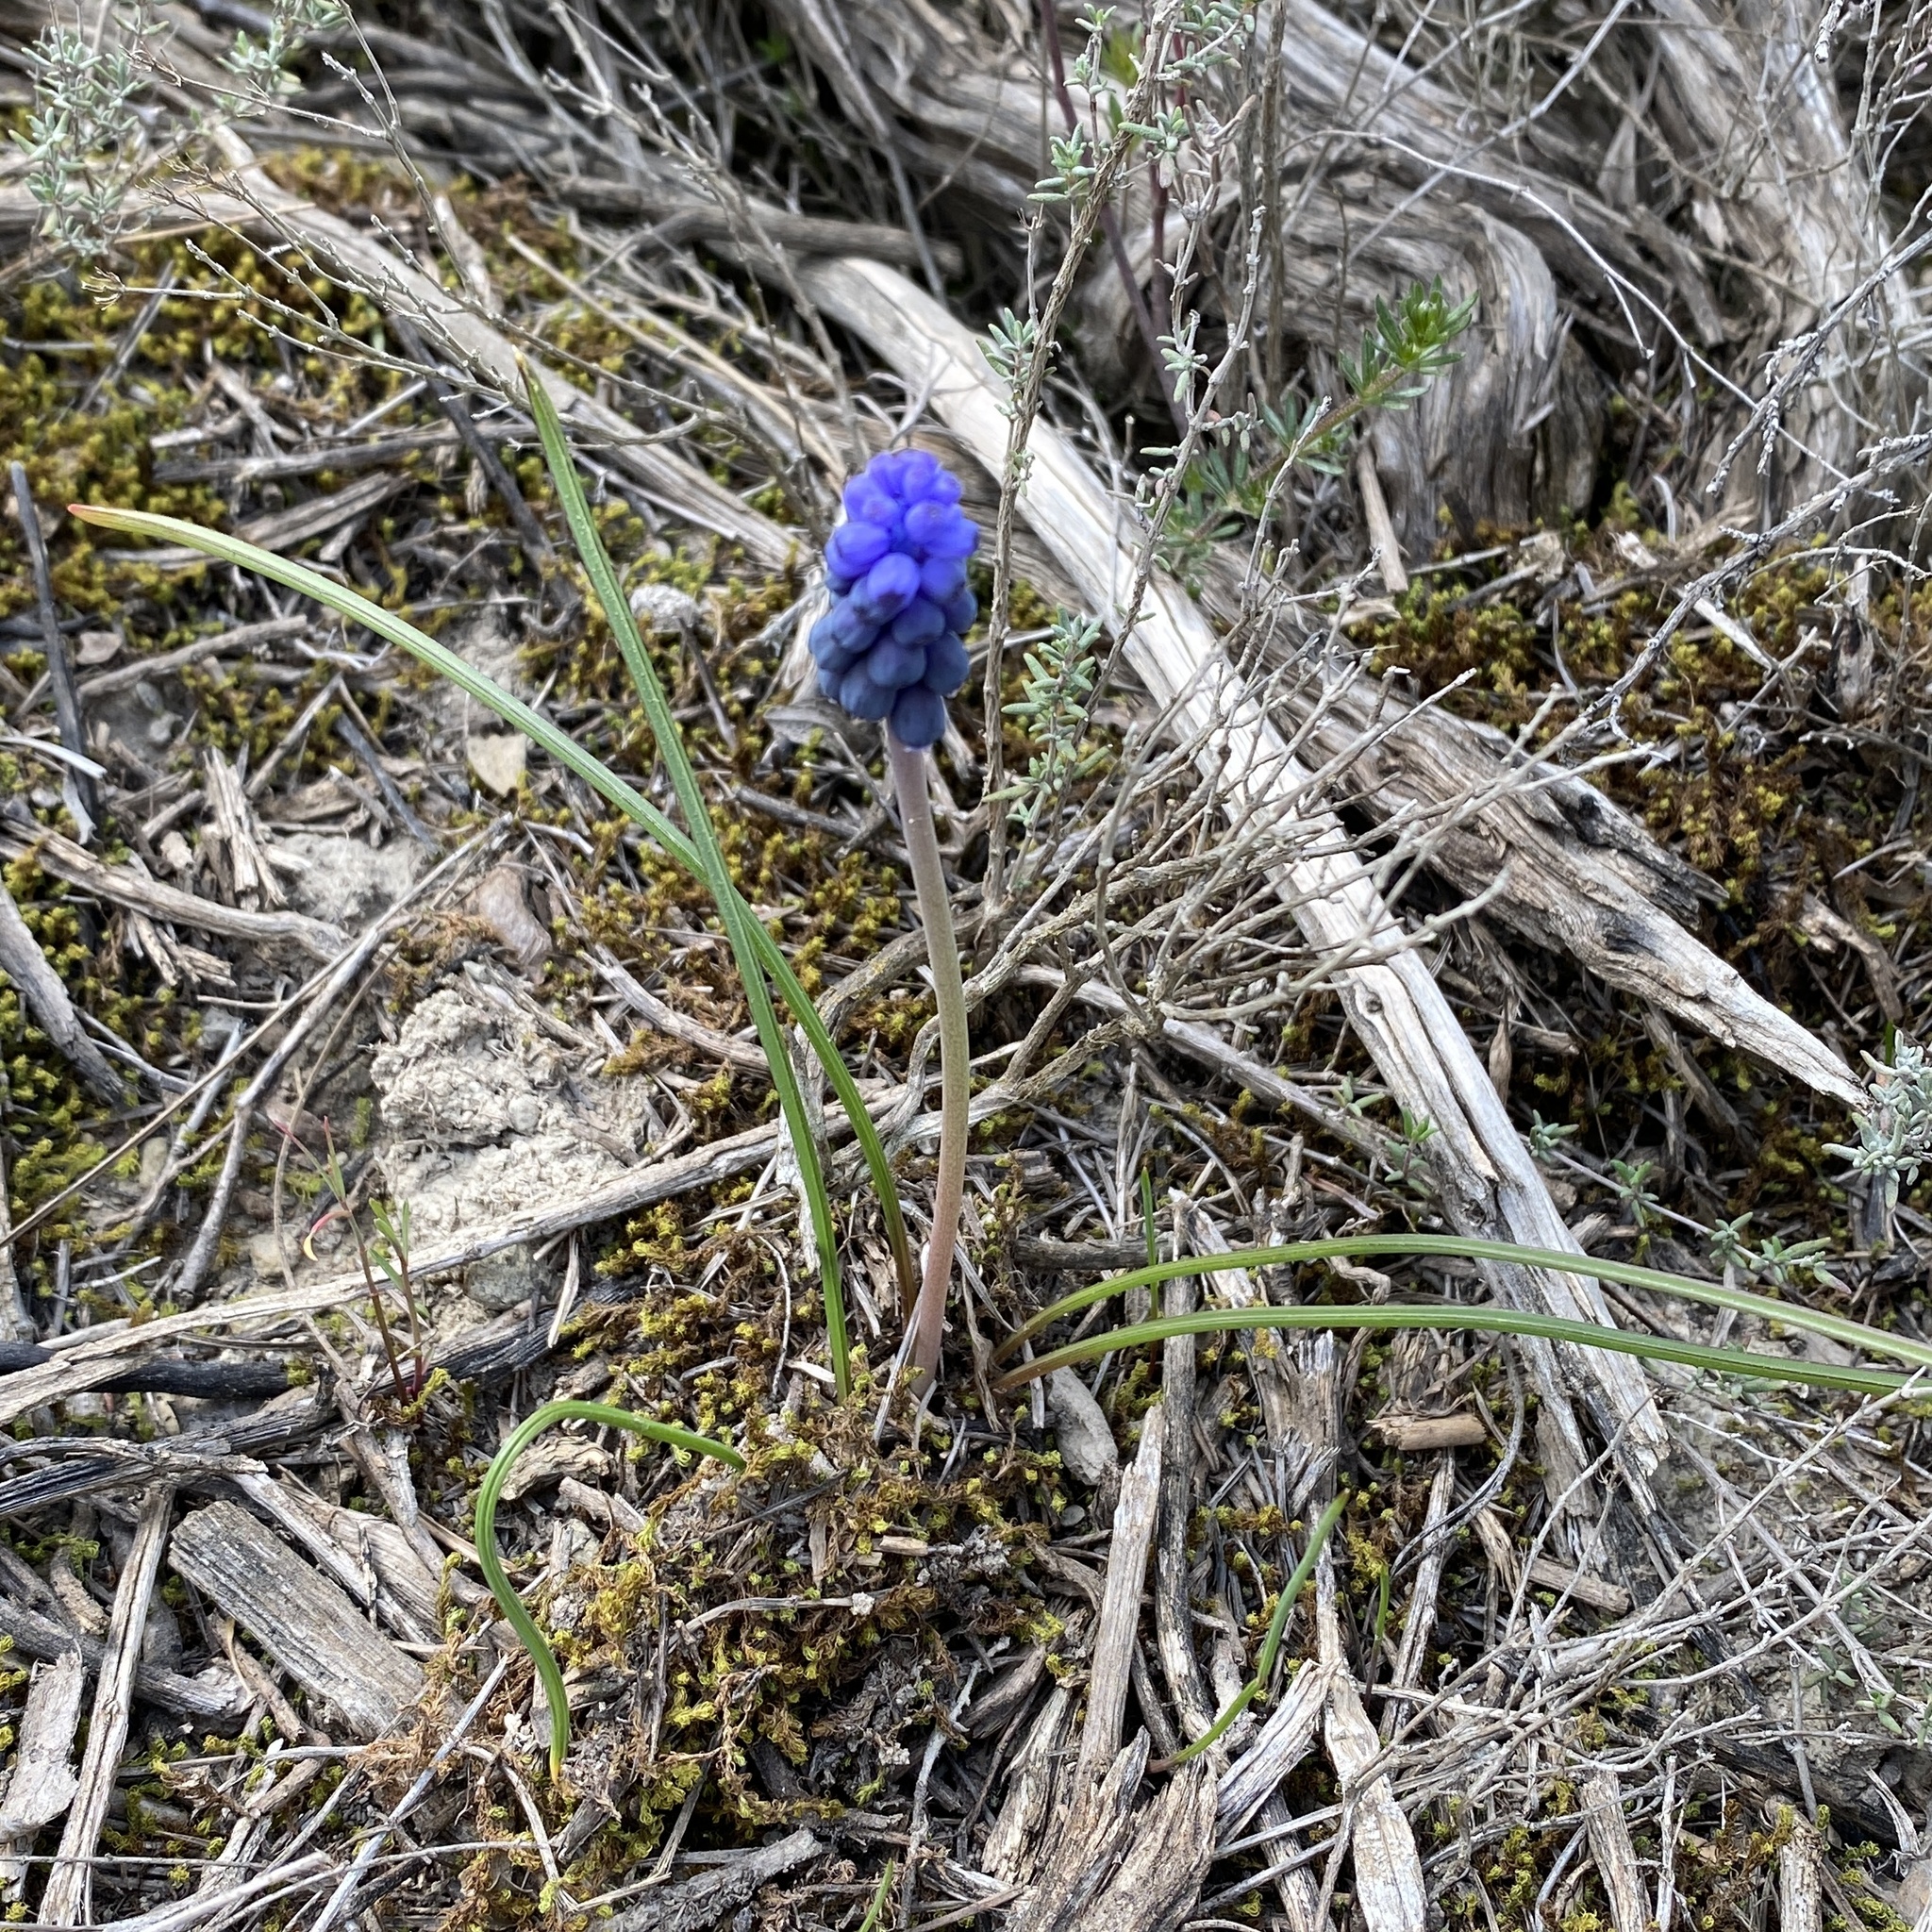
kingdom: Plantae
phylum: Tracheophyta
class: Liliopsida
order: Asparagales
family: Asparagaceae
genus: Muscari
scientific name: Muscari neglectum
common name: Grape-hyacinth
